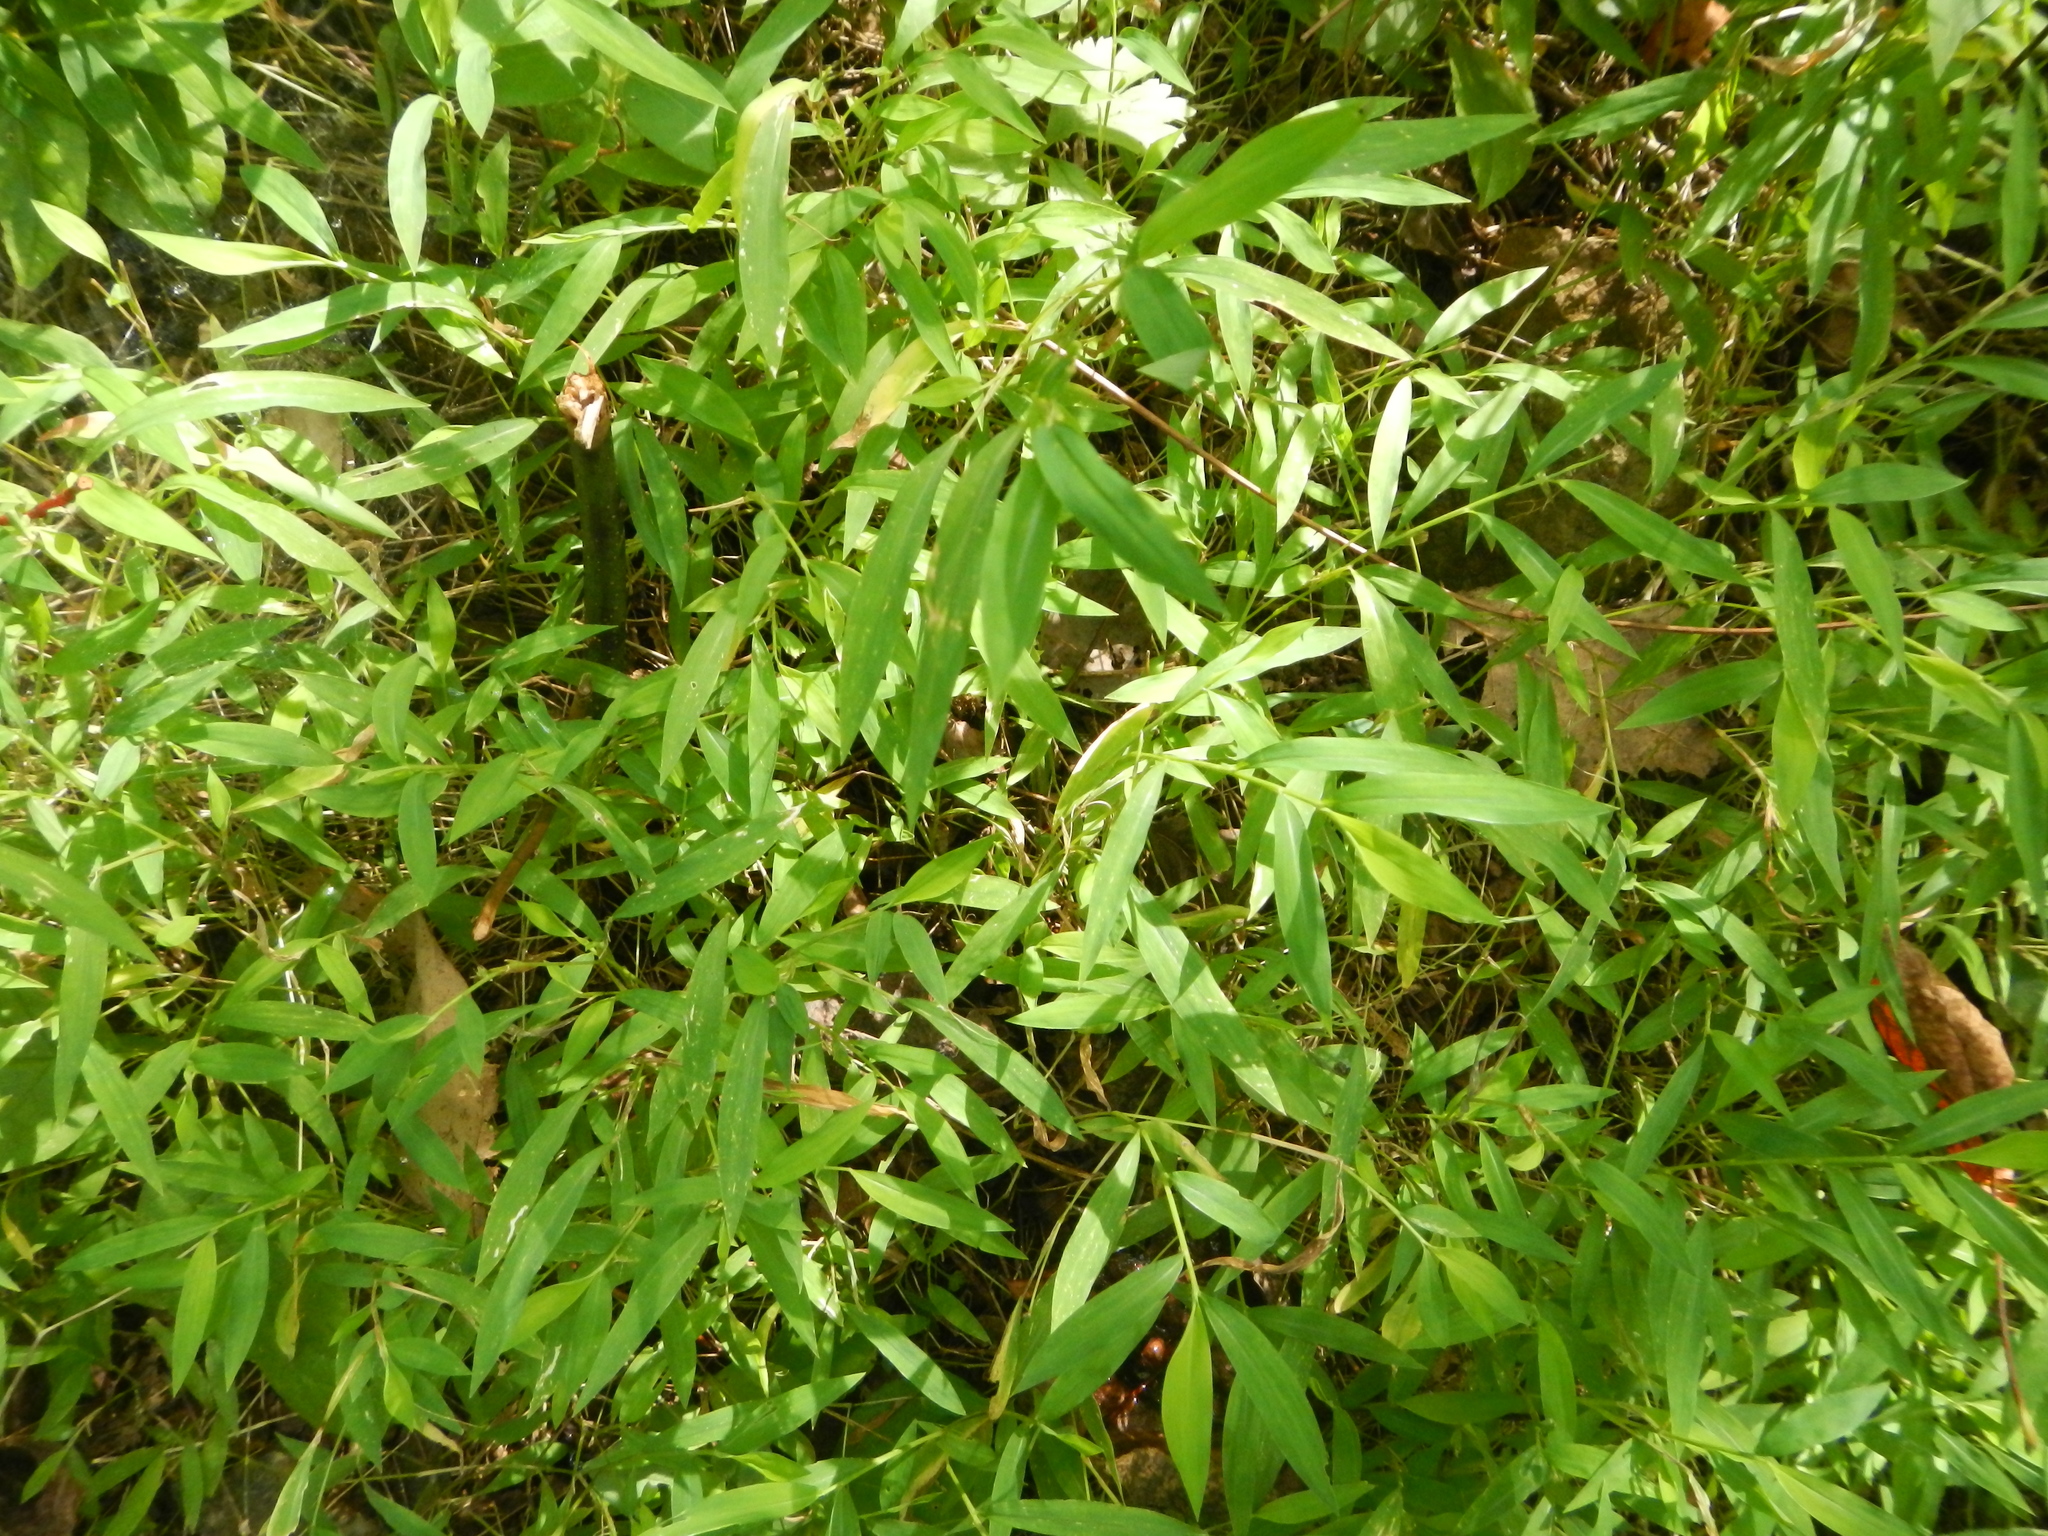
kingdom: Plantae
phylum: Tracheophyta
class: Liliopsida
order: Poales
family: Poaceae
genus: Microstegium
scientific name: Microstegium vimineum
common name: Japanese stiltgrass
